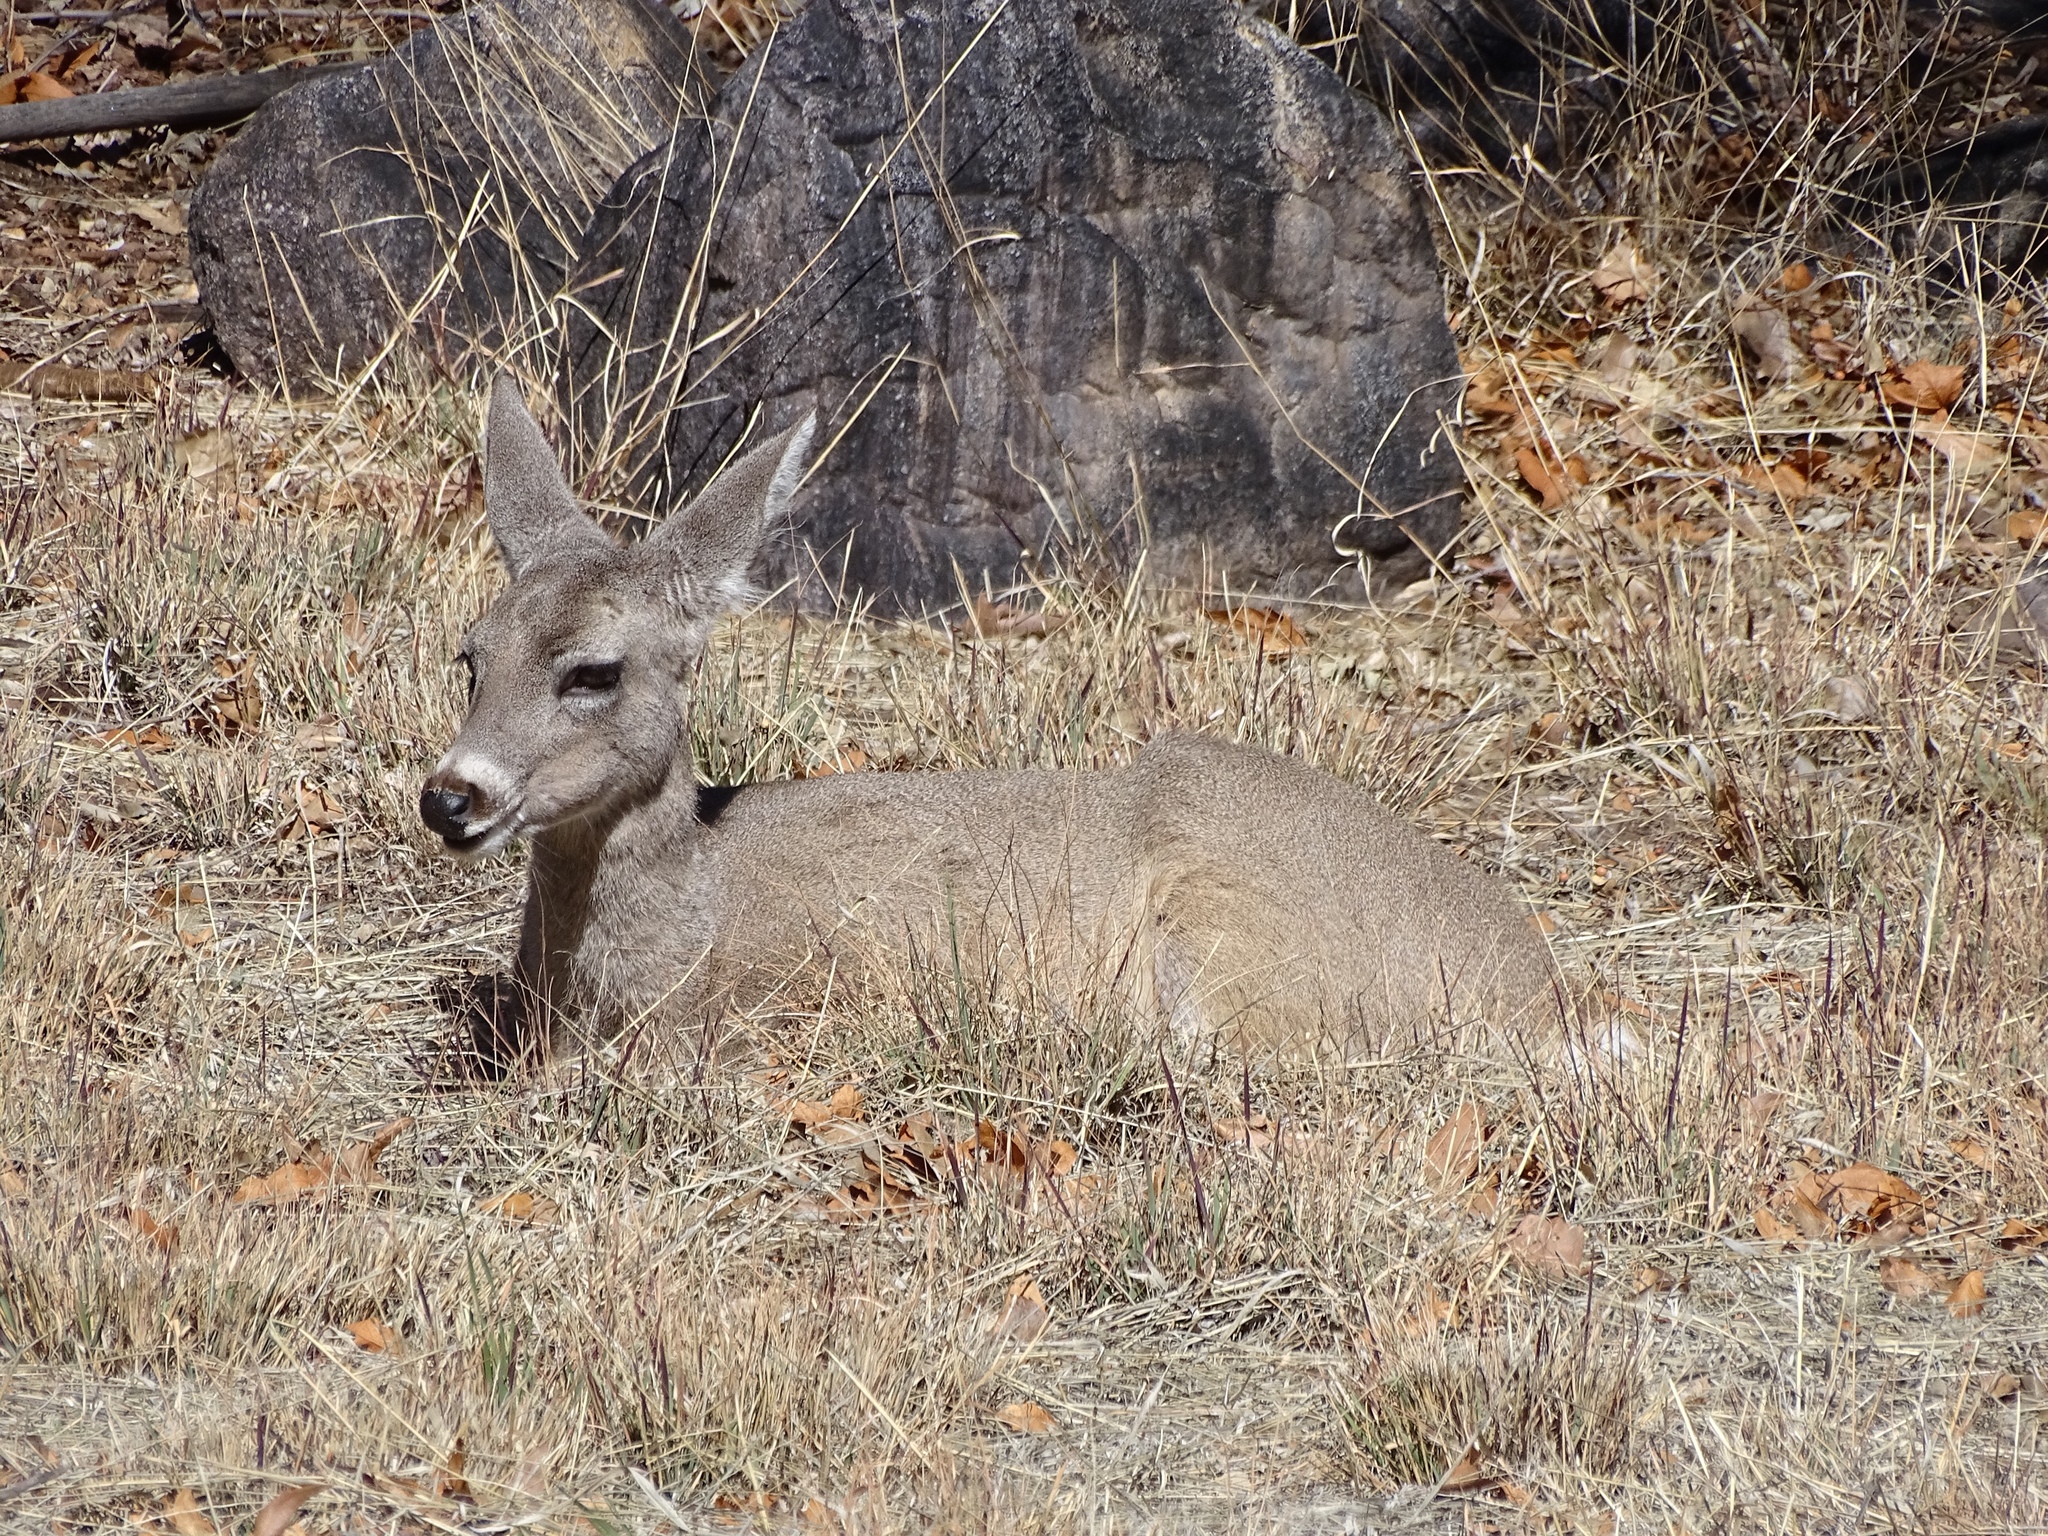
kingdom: Animalia
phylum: Chordata
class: Mammalia
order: Artiodactyla
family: Cervidae
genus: Odocoileus
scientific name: Odocoileus virginianus
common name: White-tailed deer
